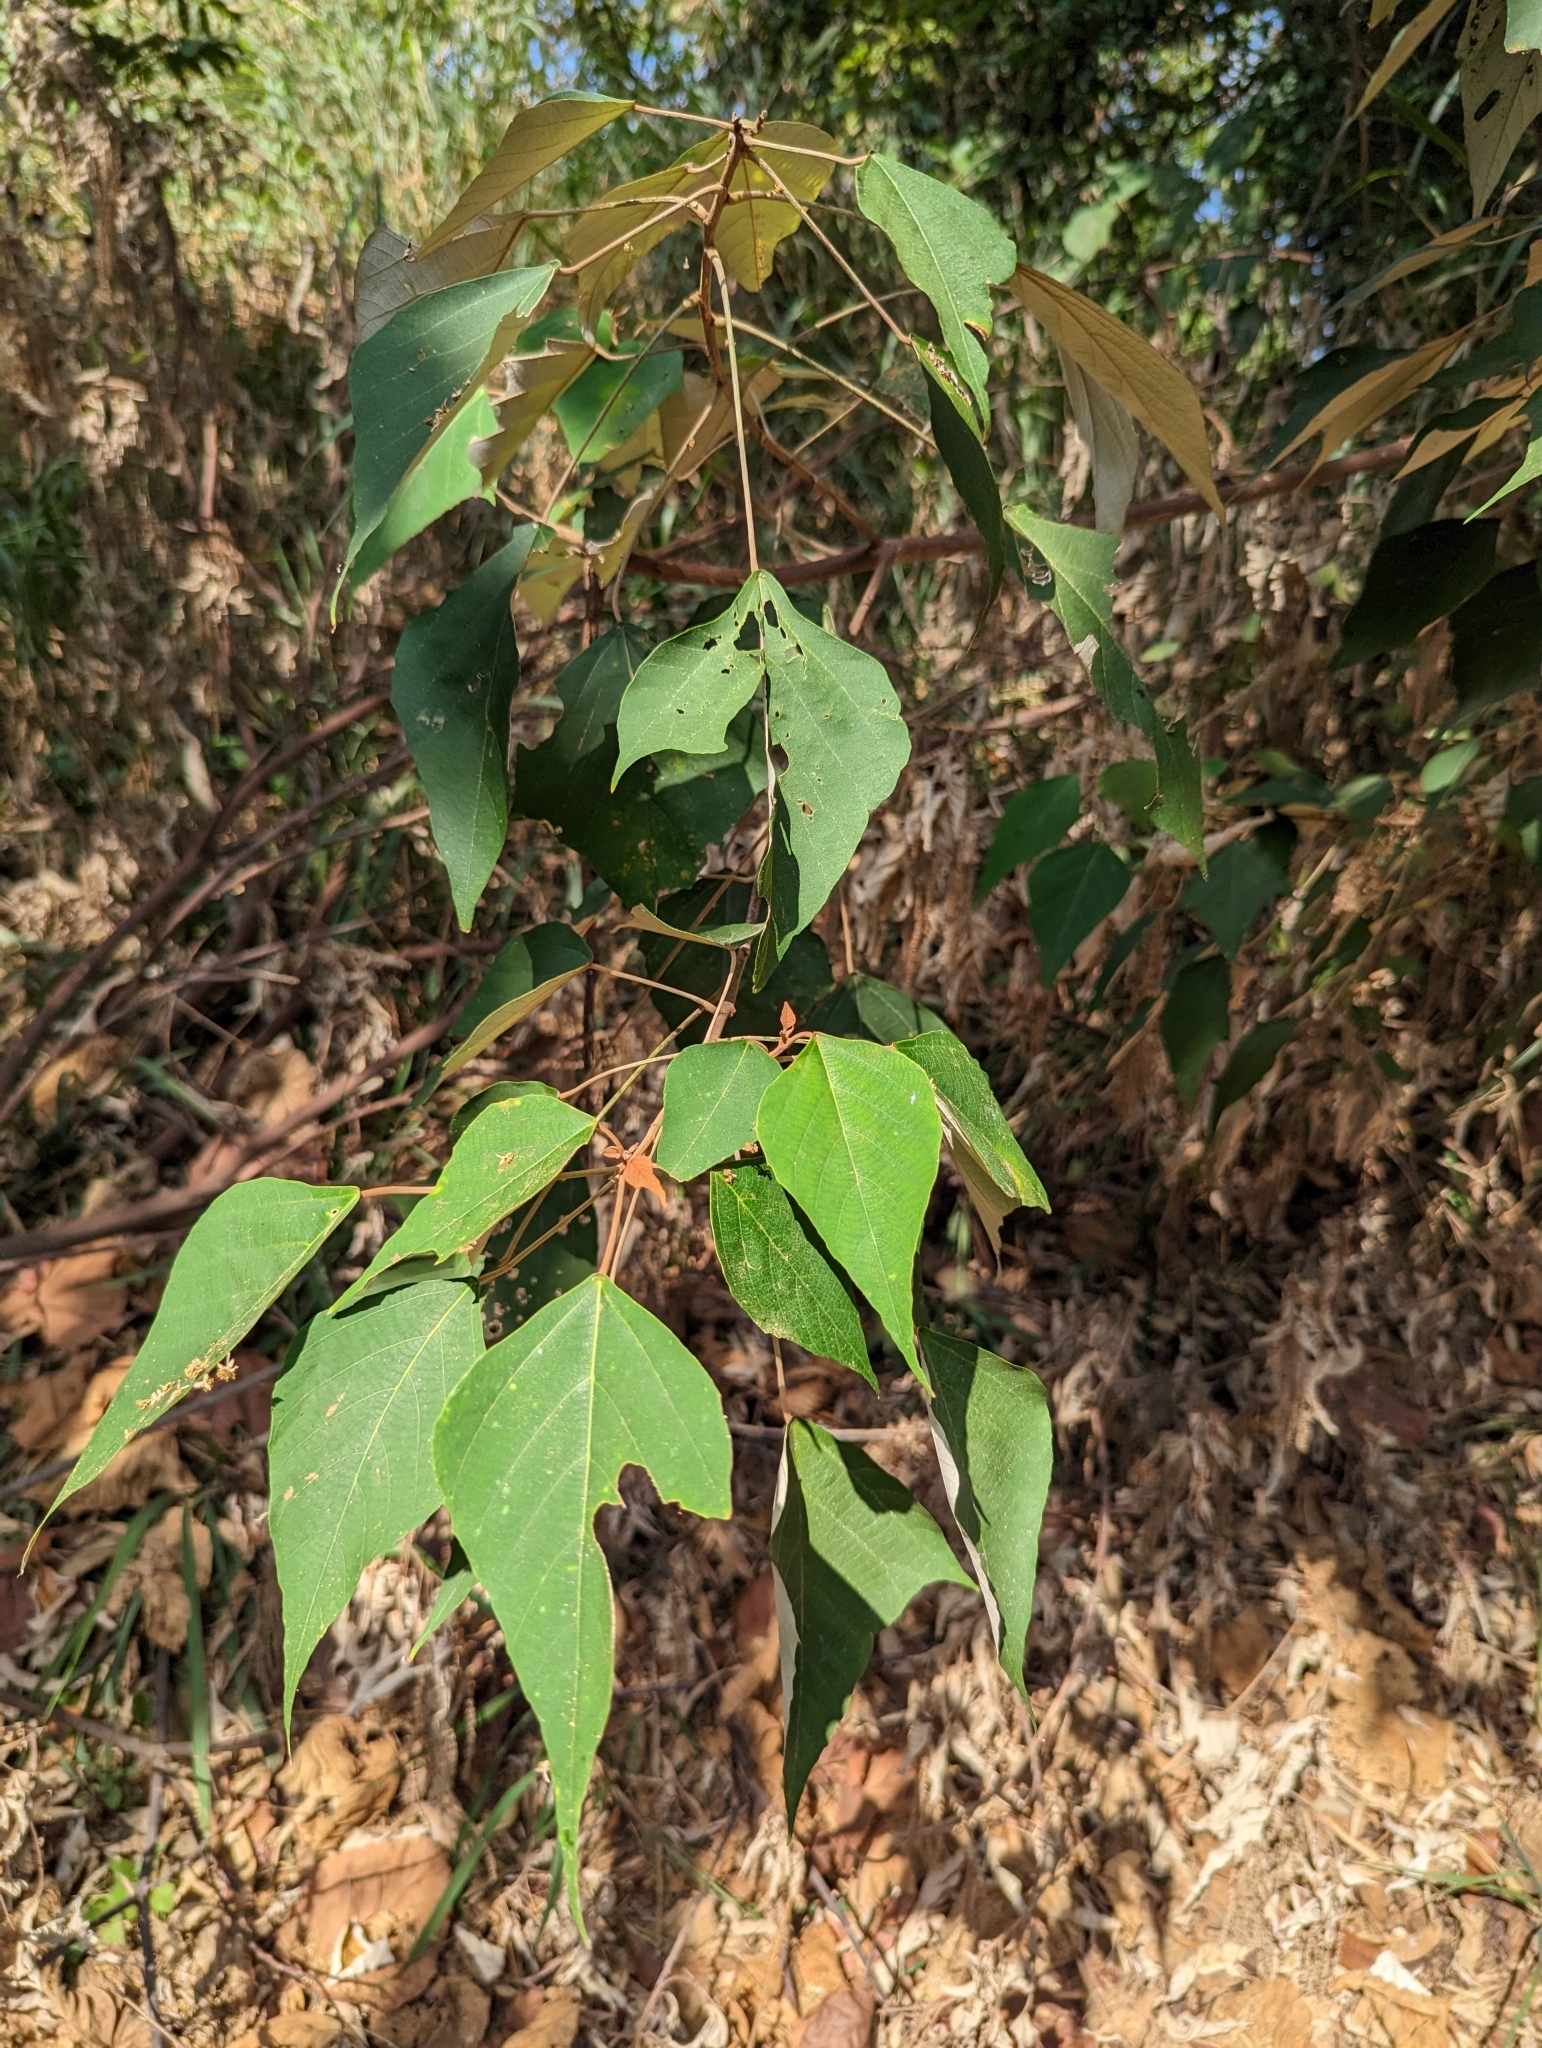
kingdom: Plantae
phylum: Tracheophyta
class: Magnoliopsida
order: Malpighiales
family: Euphorbiaceae
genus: Mallotus
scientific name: Mallotus paniculatus
